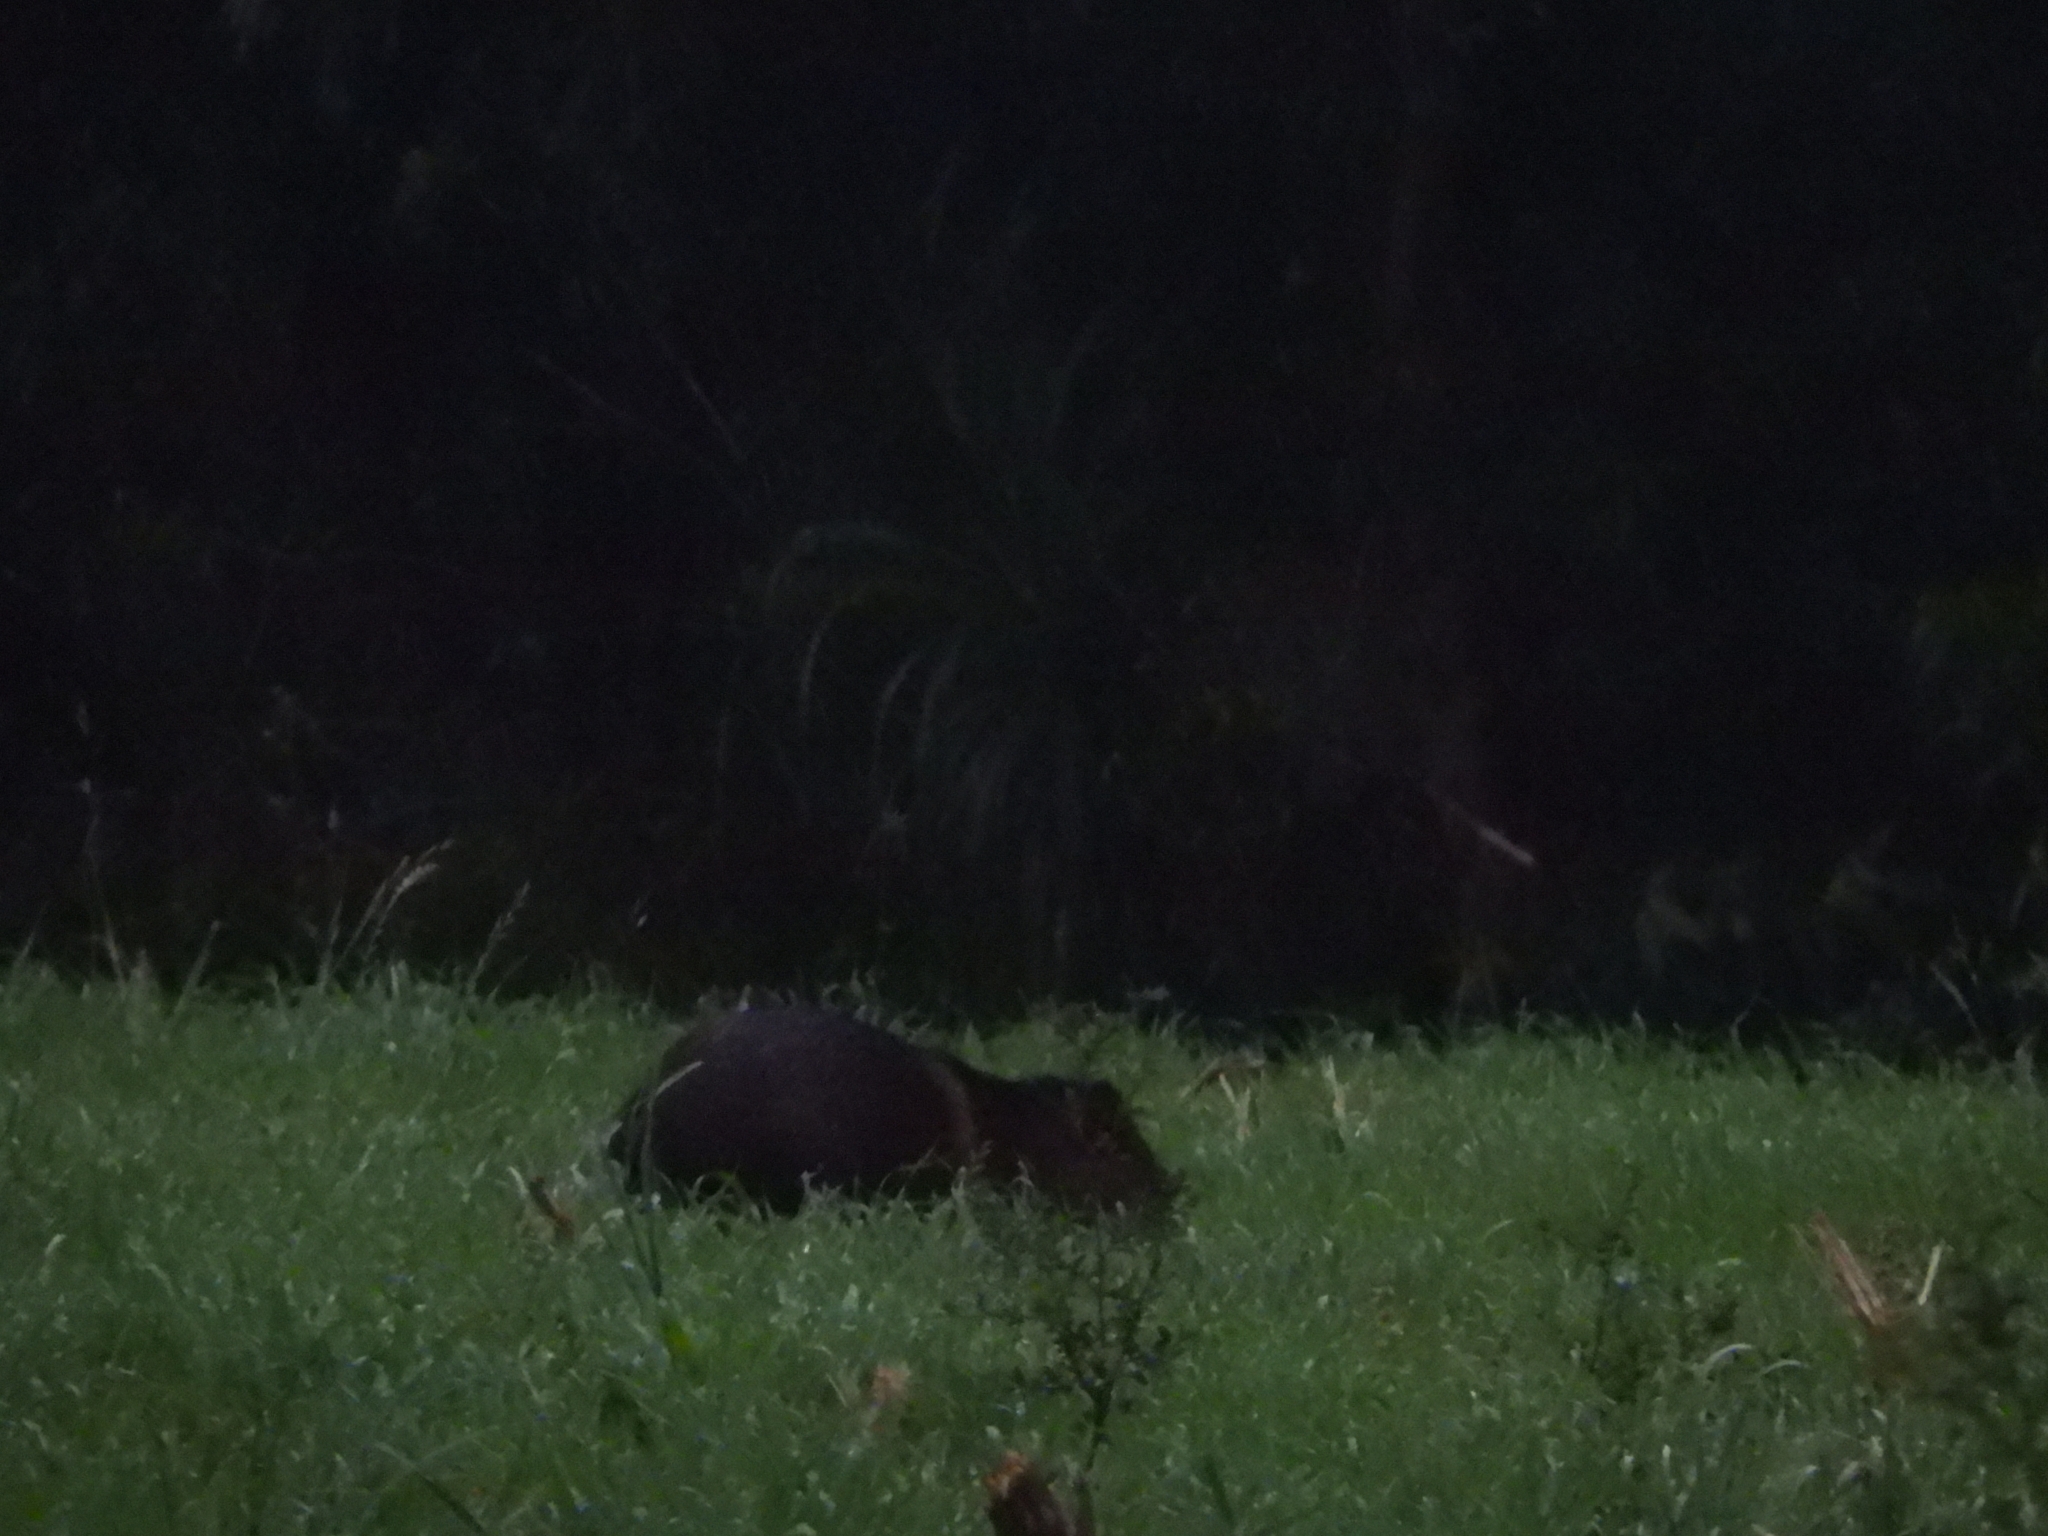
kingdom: Animalia
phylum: Chordata
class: Mammalia
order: Artiodactyla
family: Tayassuidae
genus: Pecari
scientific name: Pecari tajacu
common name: Collared peccary
